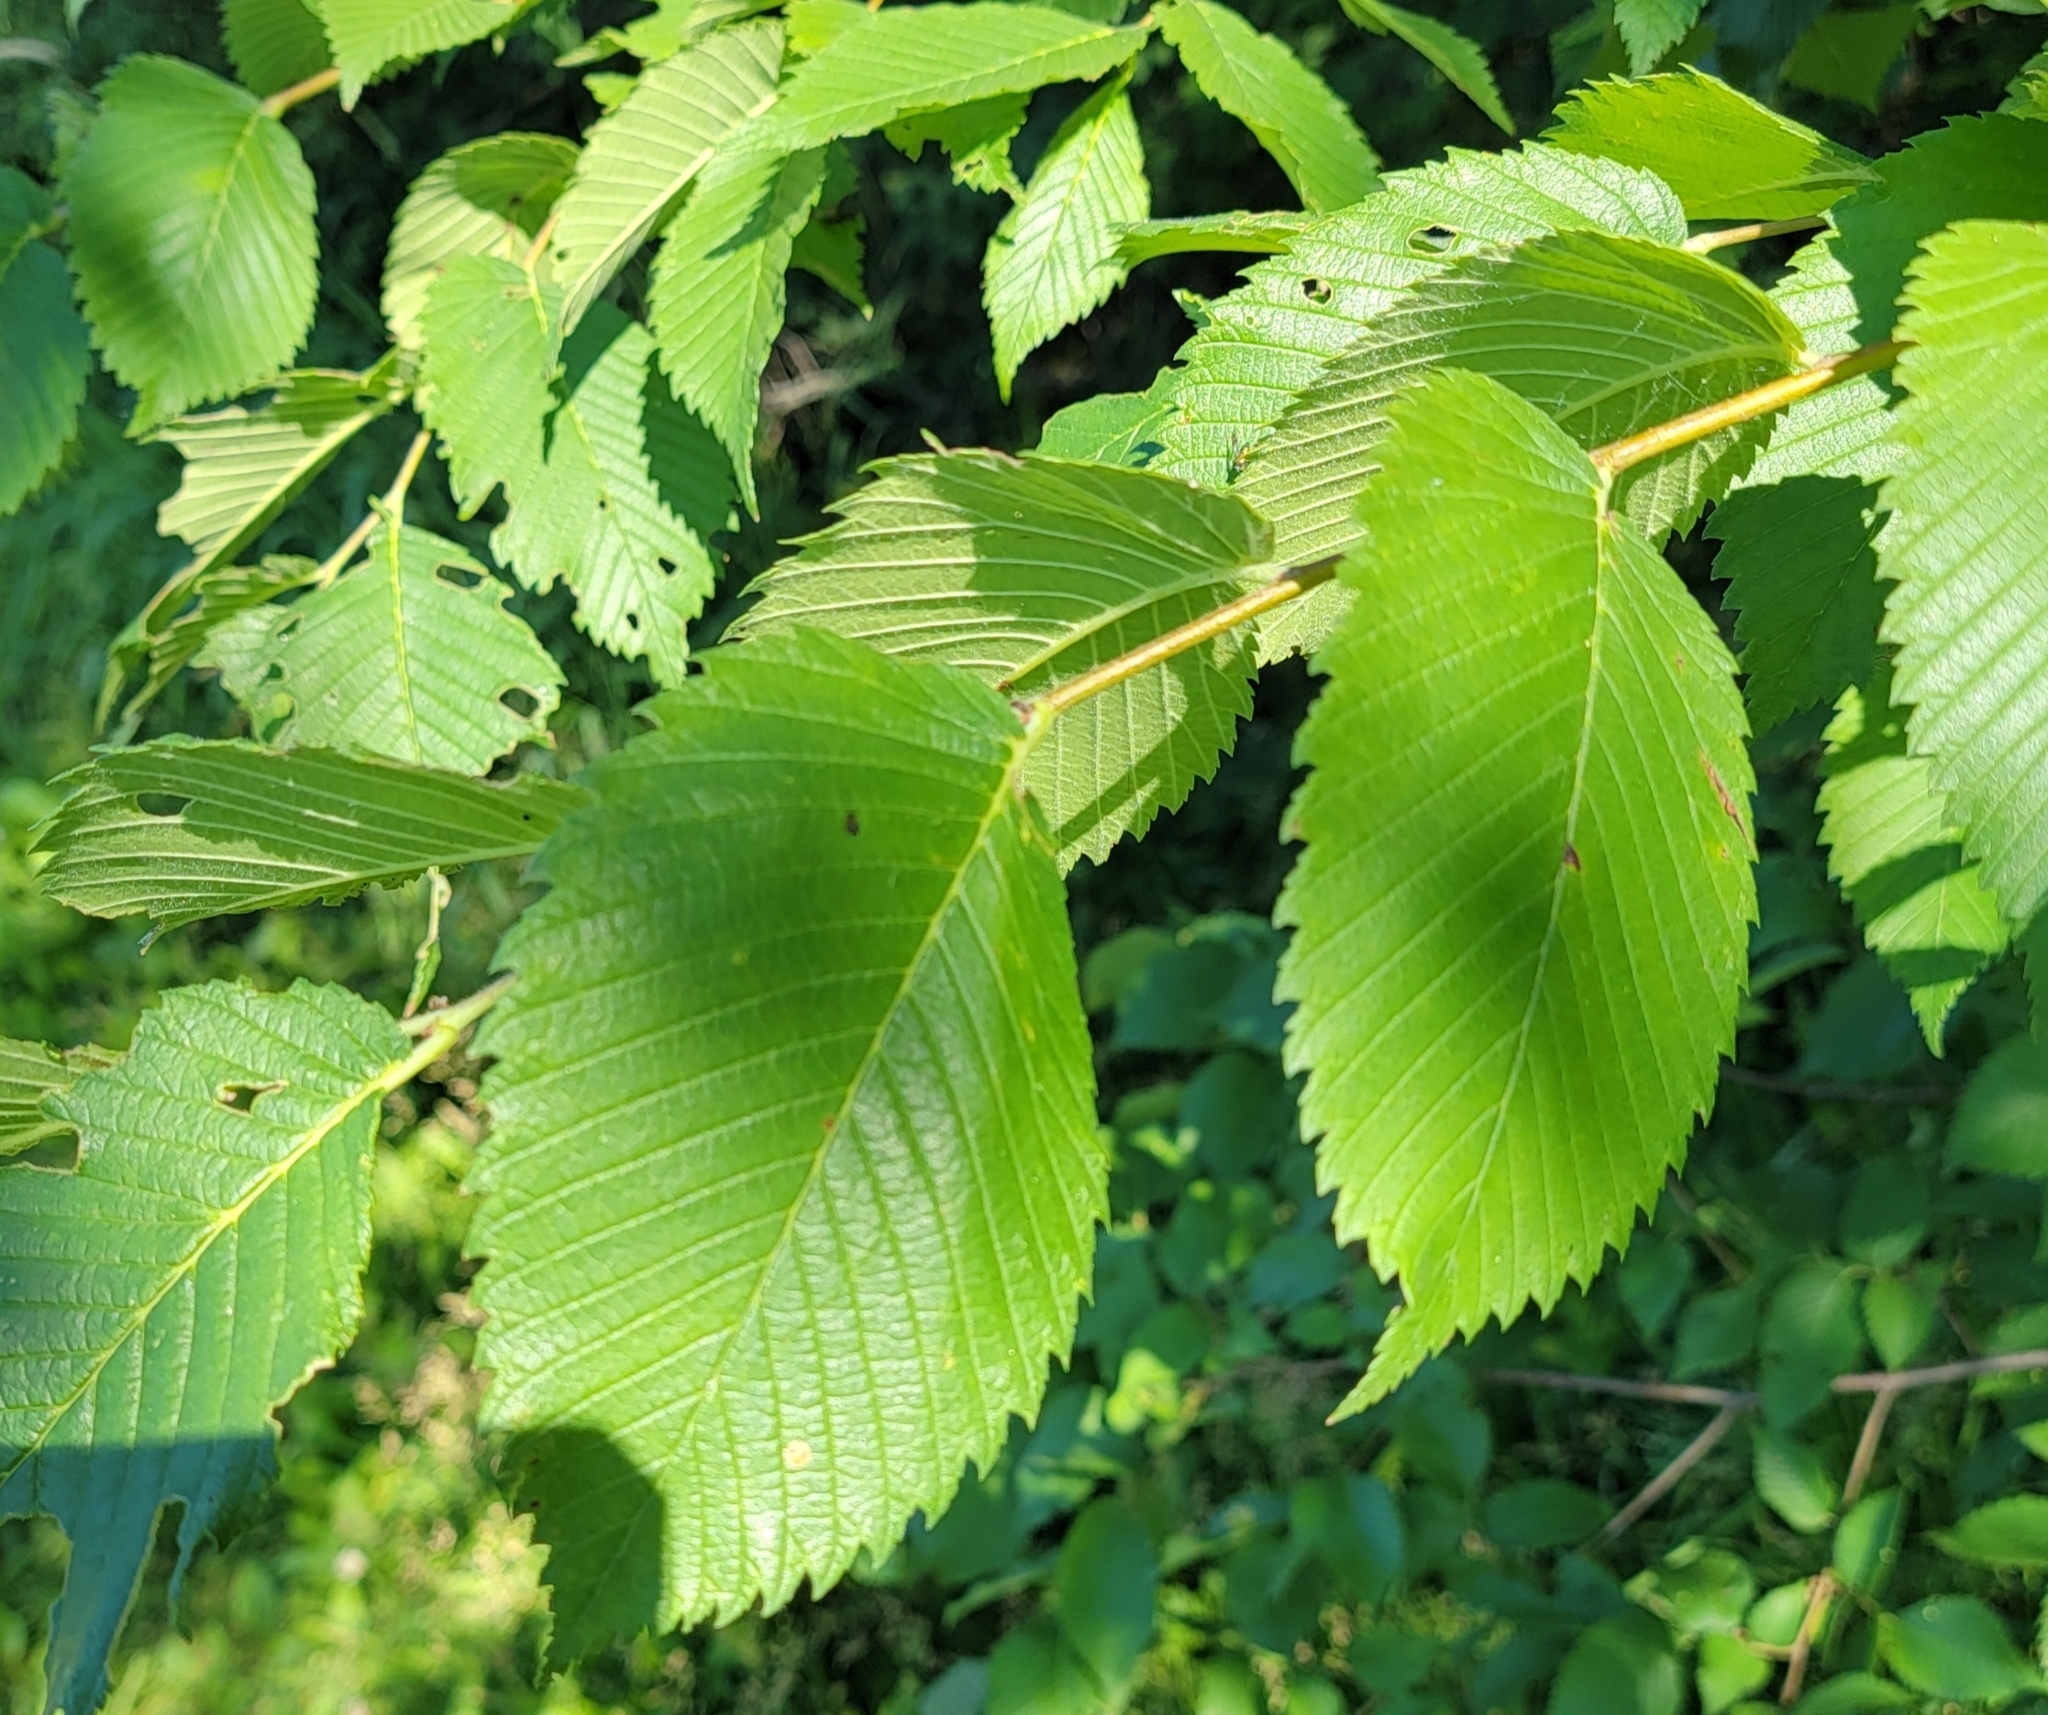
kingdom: Plantae
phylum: Tracheophyta
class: Magnoliopsida
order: Rosales
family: Ulmaceae
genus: Ulmus
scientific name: Ulmus americana
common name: American elm
